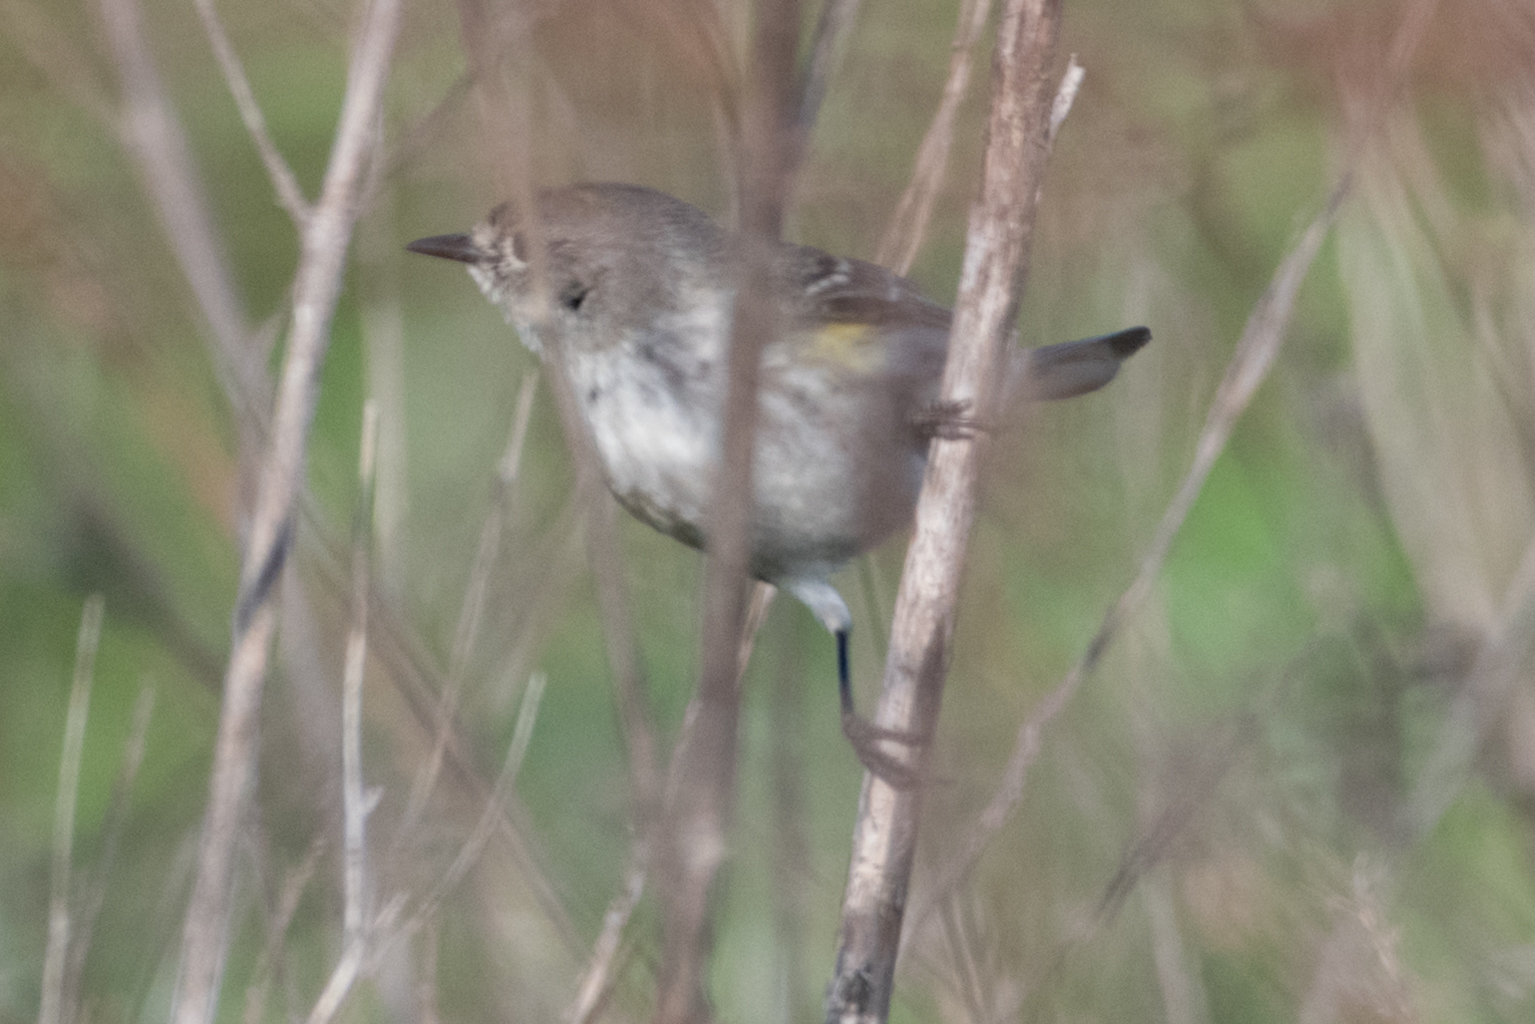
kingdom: Animalia
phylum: Chordata
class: Aves
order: Passeriformes
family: Parulidae
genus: Setophaga
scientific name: Setophaga coronata
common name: Myrtle warbler
